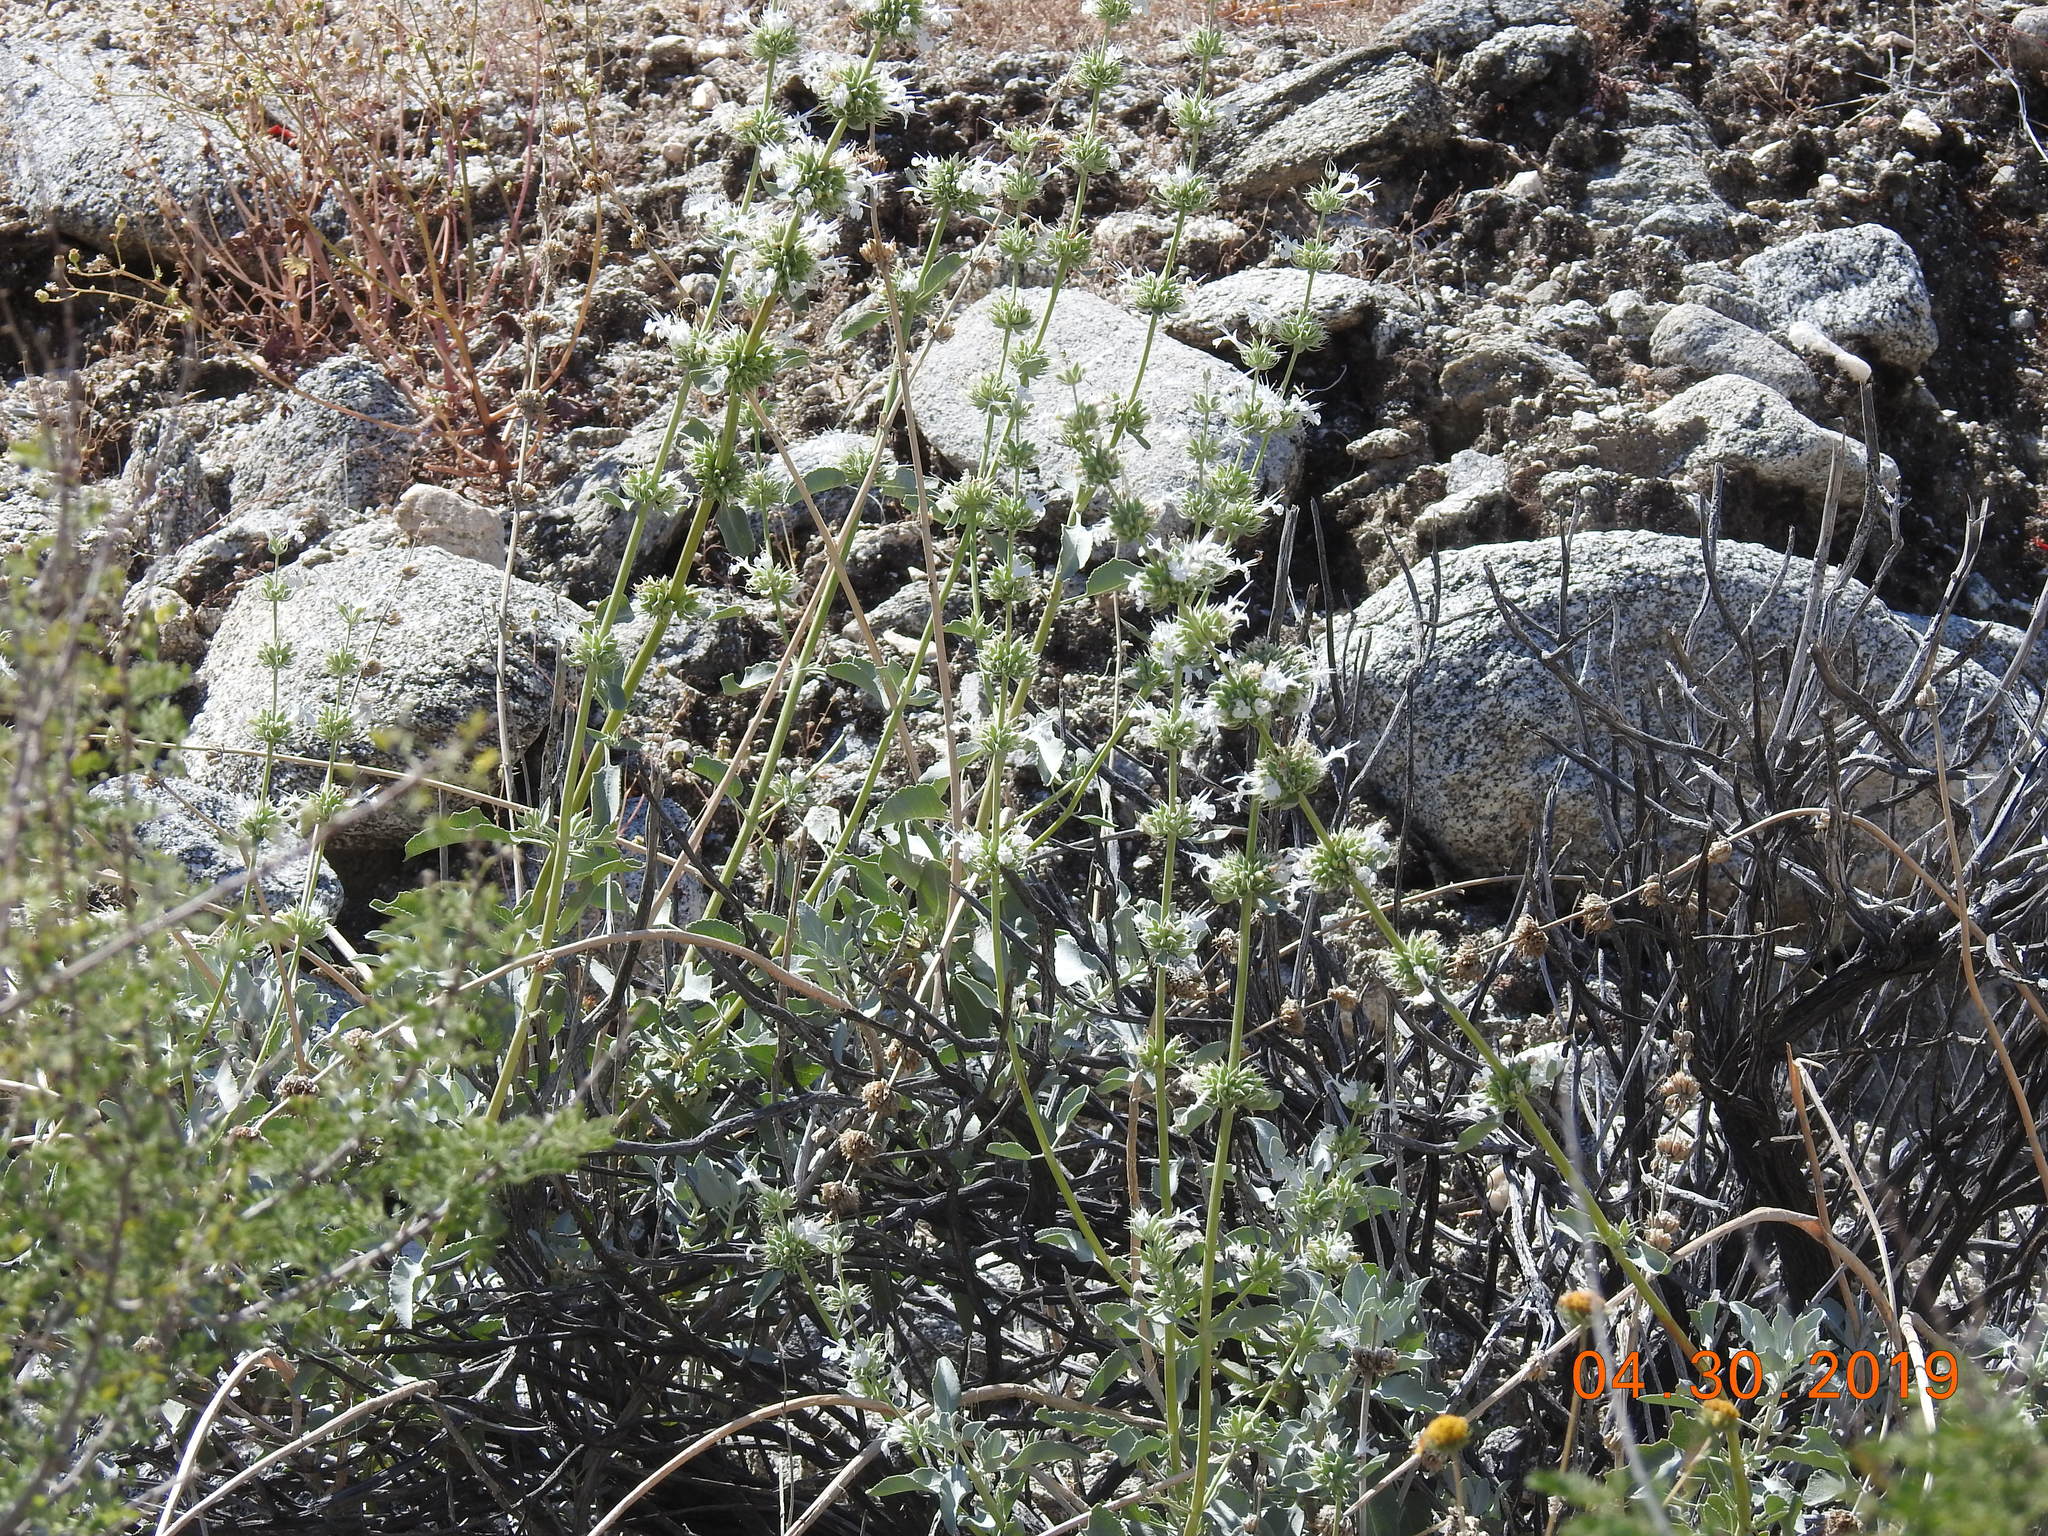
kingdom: Plantae
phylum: Tracheophyta
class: Magnoliopsida
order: Lamiales
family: Lamiaceae
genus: Salvia
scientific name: Salvia vaseyi
